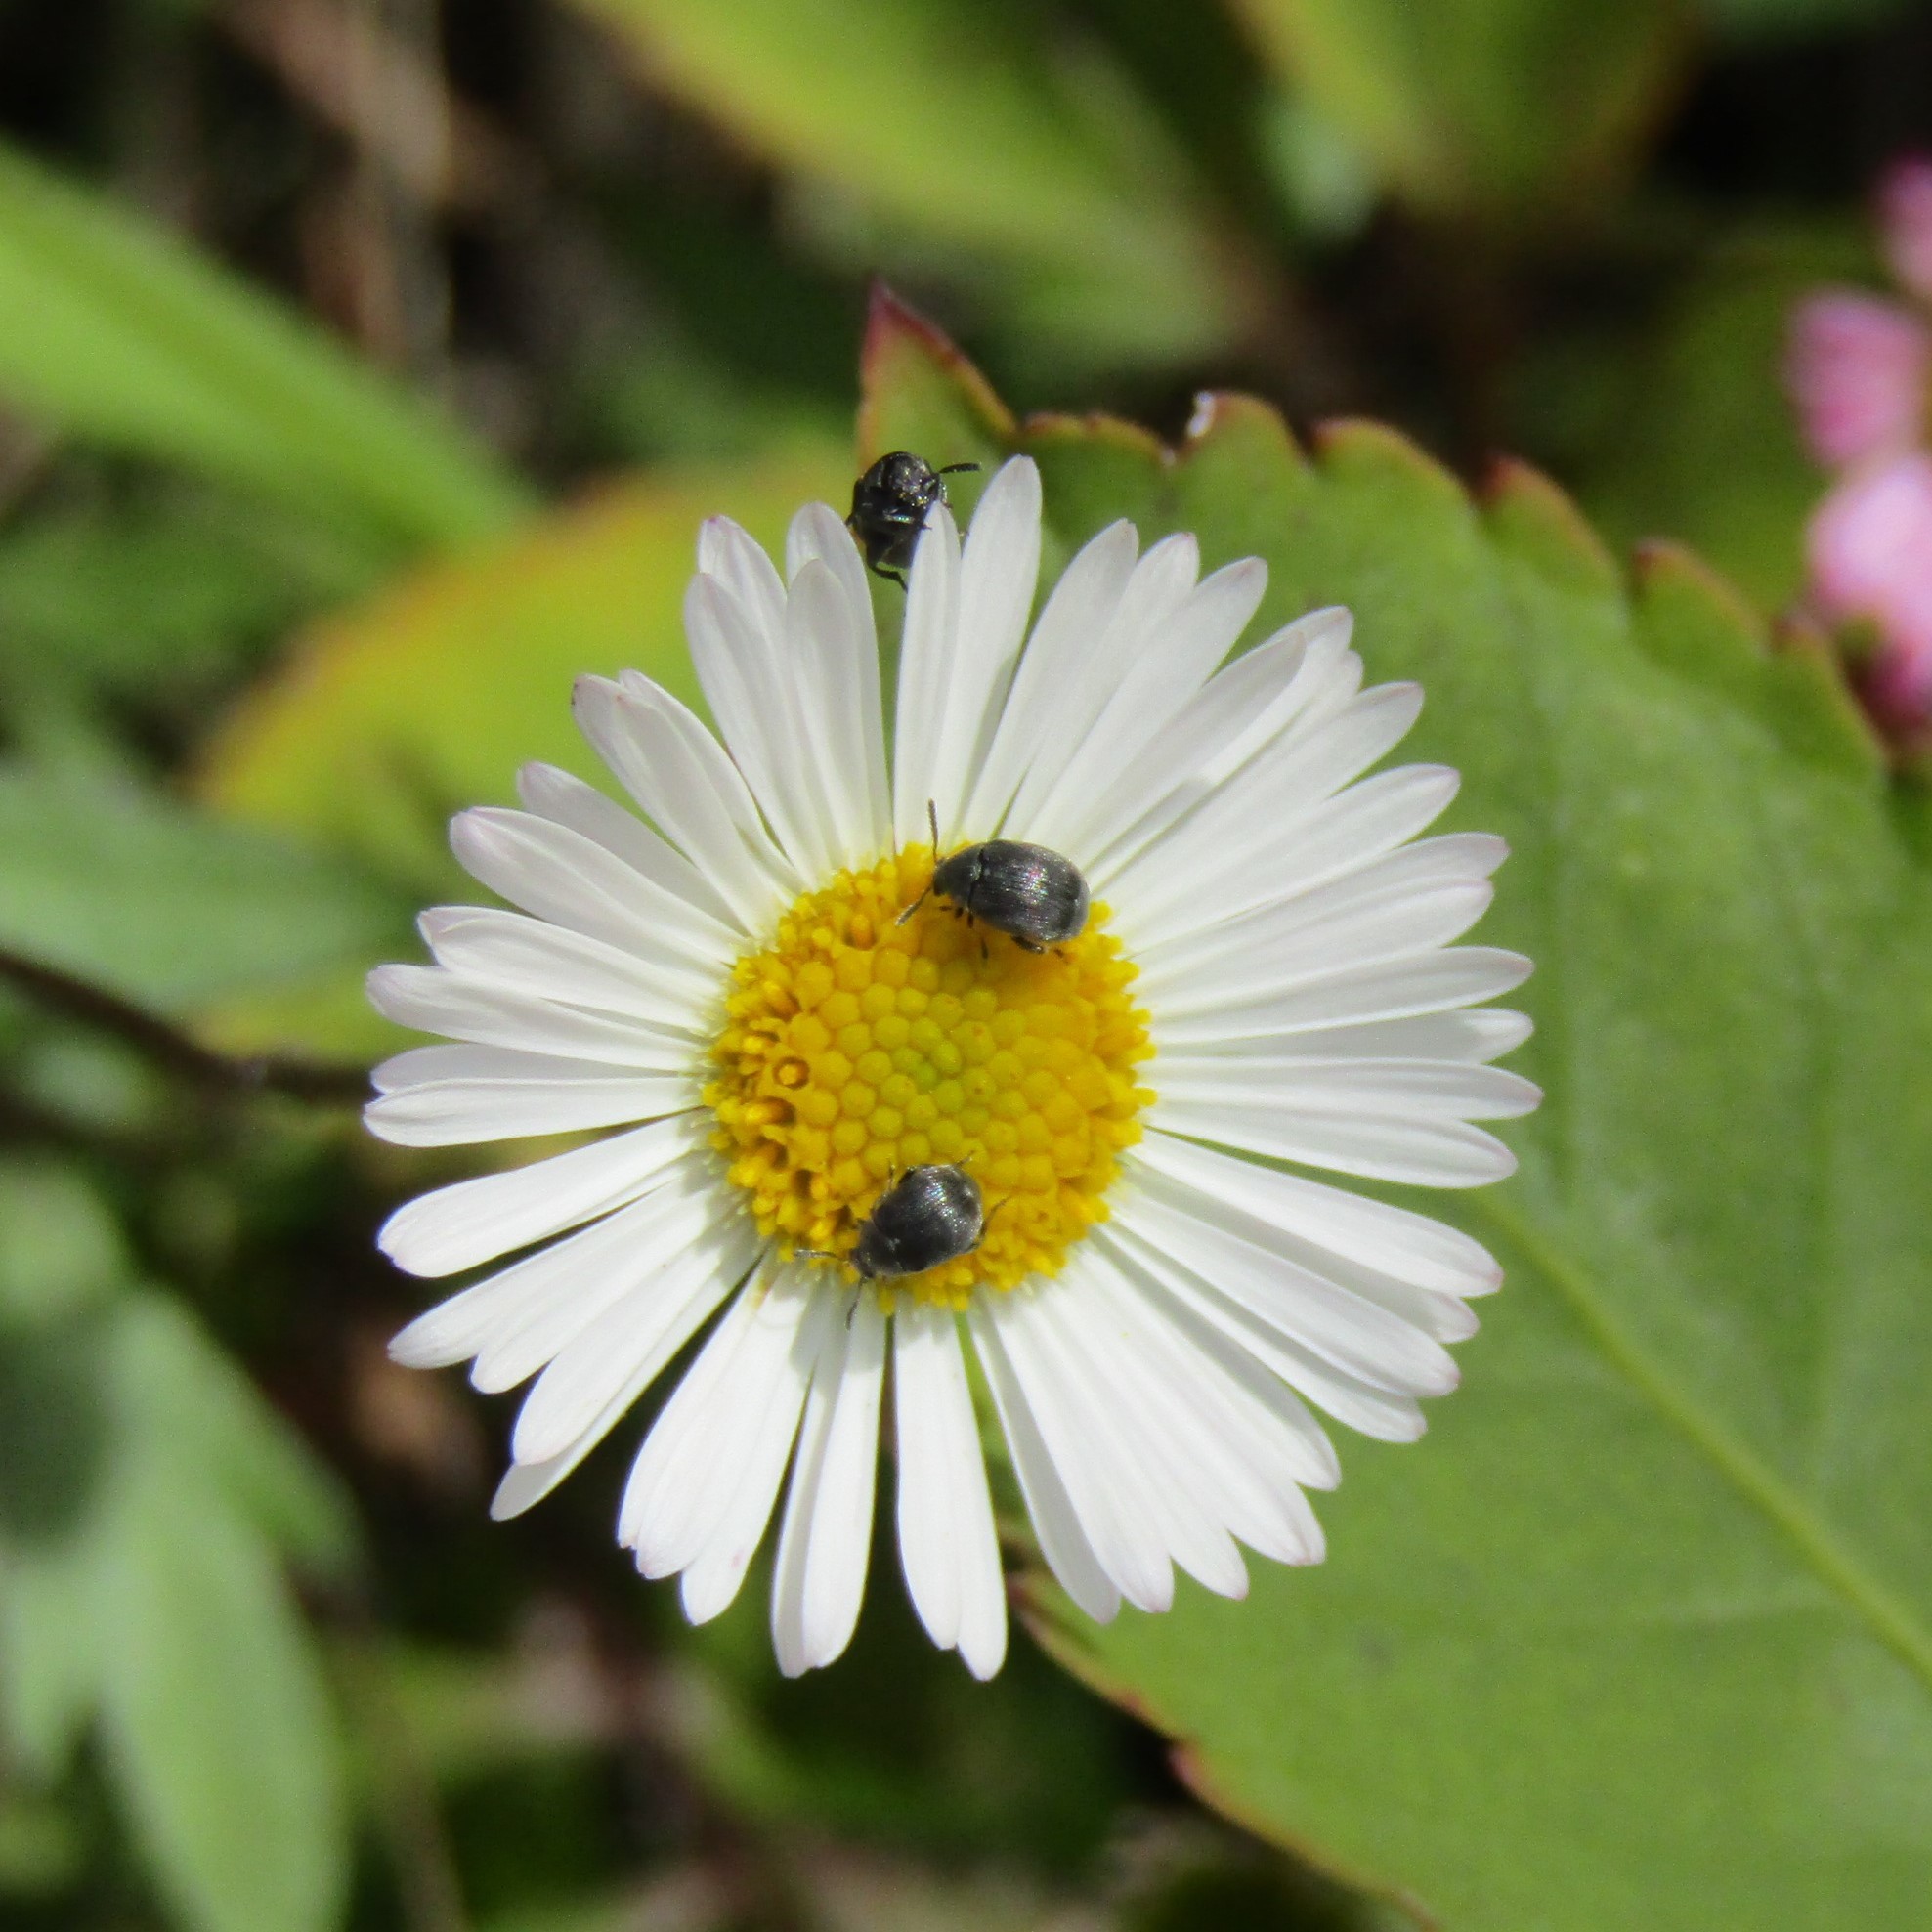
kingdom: Animalia
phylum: Arthropoda
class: Insecta
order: Coleoptera
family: Chrysomelidae
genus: Bruchidius
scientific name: Bruchidius villosus
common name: Scotch broom bruchid
